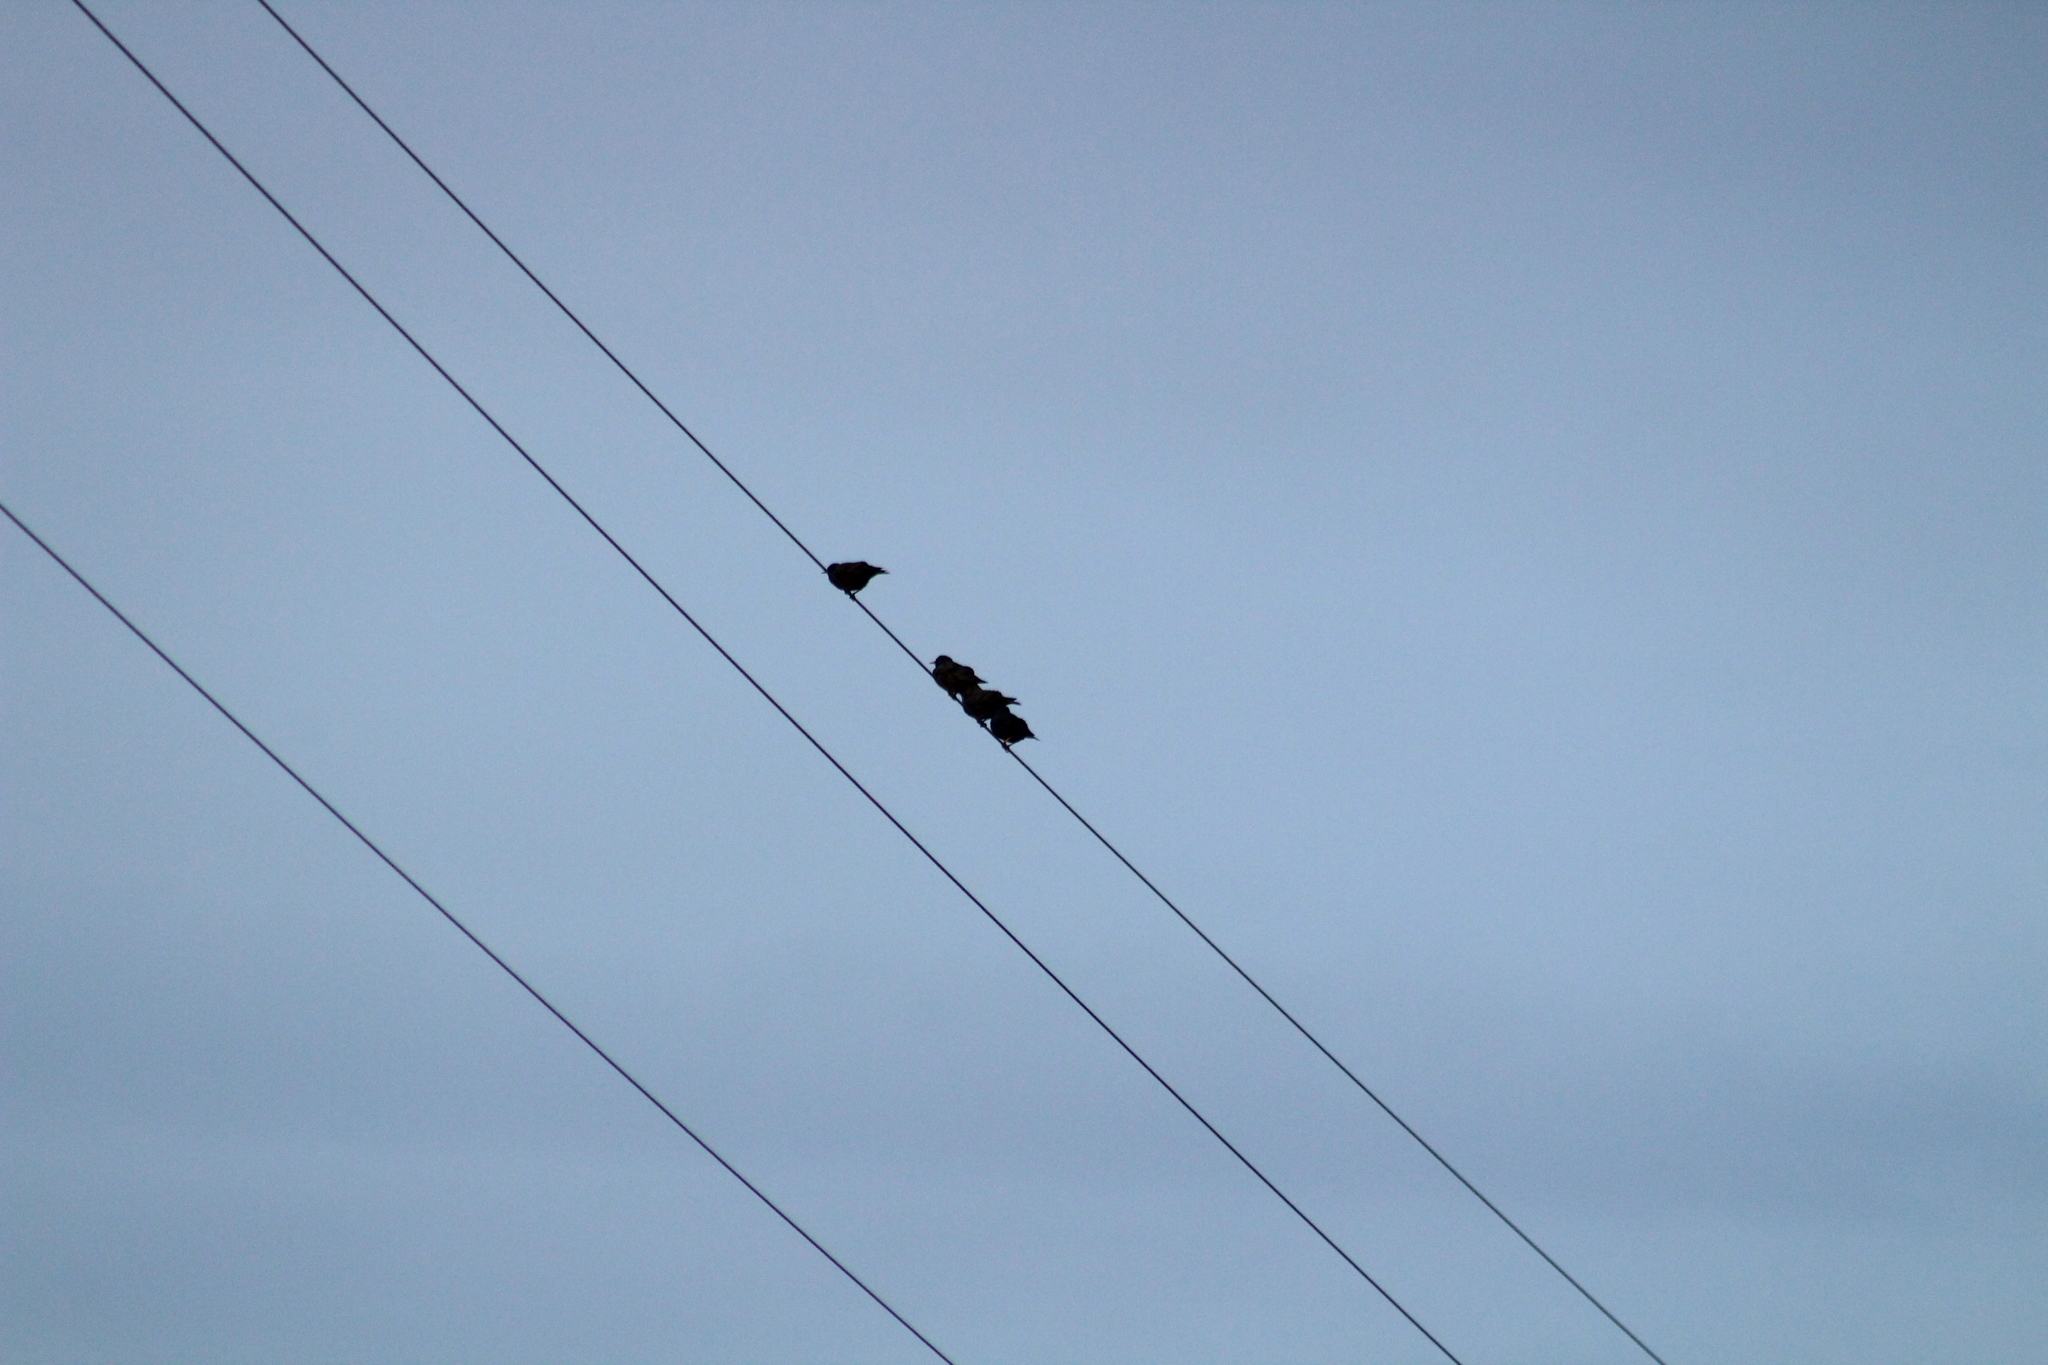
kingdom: Animalia
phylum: Chordata
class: Aves
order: Passeriformes
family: Sturnidae
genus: Sturnus
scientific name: Sturnus vulgaris
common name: Common starling
